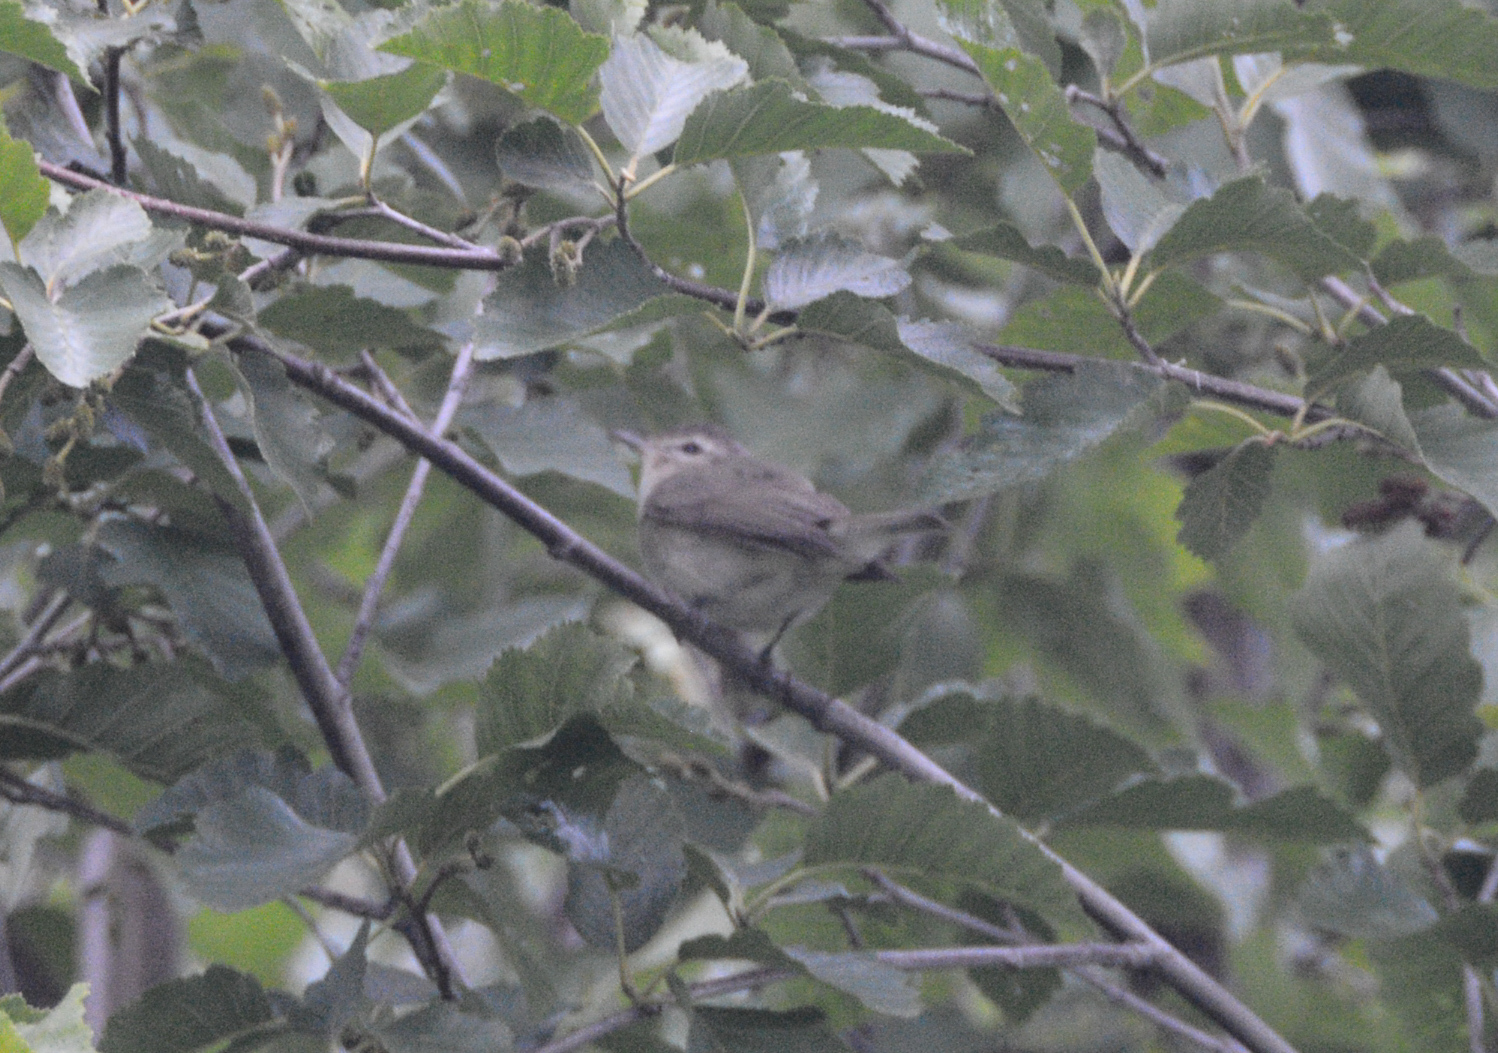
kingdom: Animalia
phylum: Chordata
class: Aves
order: Passeriformes
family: Vireonidae
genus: Vireo
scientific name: Vireo gilvus
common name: Warbling vireo
